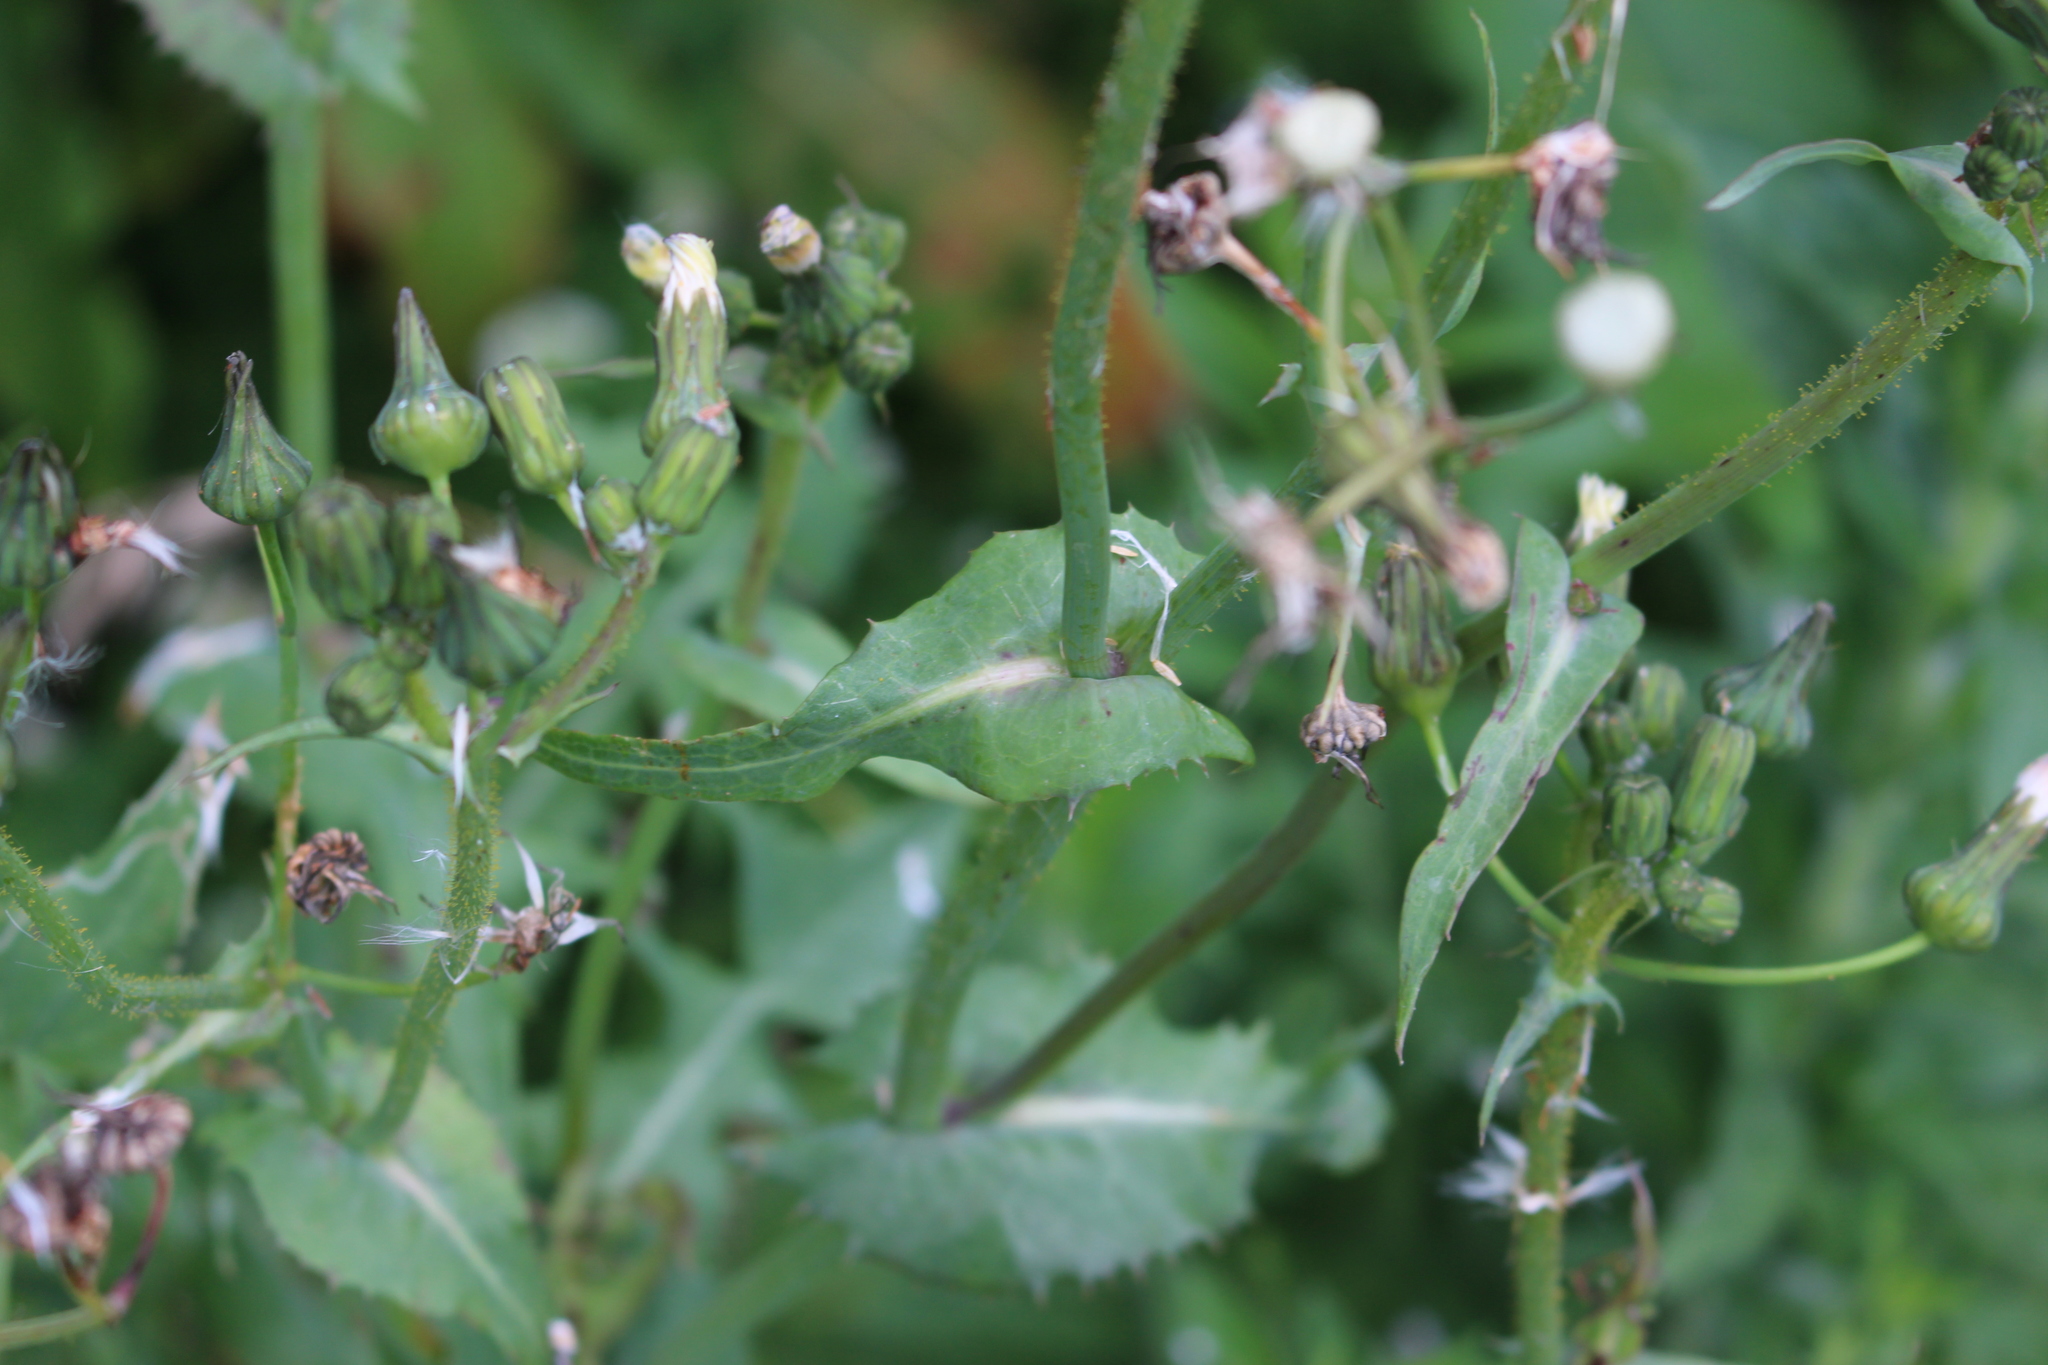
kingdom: Plantae
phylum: Tracheophyta
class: Magnoliopsida
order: Asterales
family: Asteraceae
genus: Sonchus
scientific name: Sonchus oleraceus
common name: Common sowthistle
